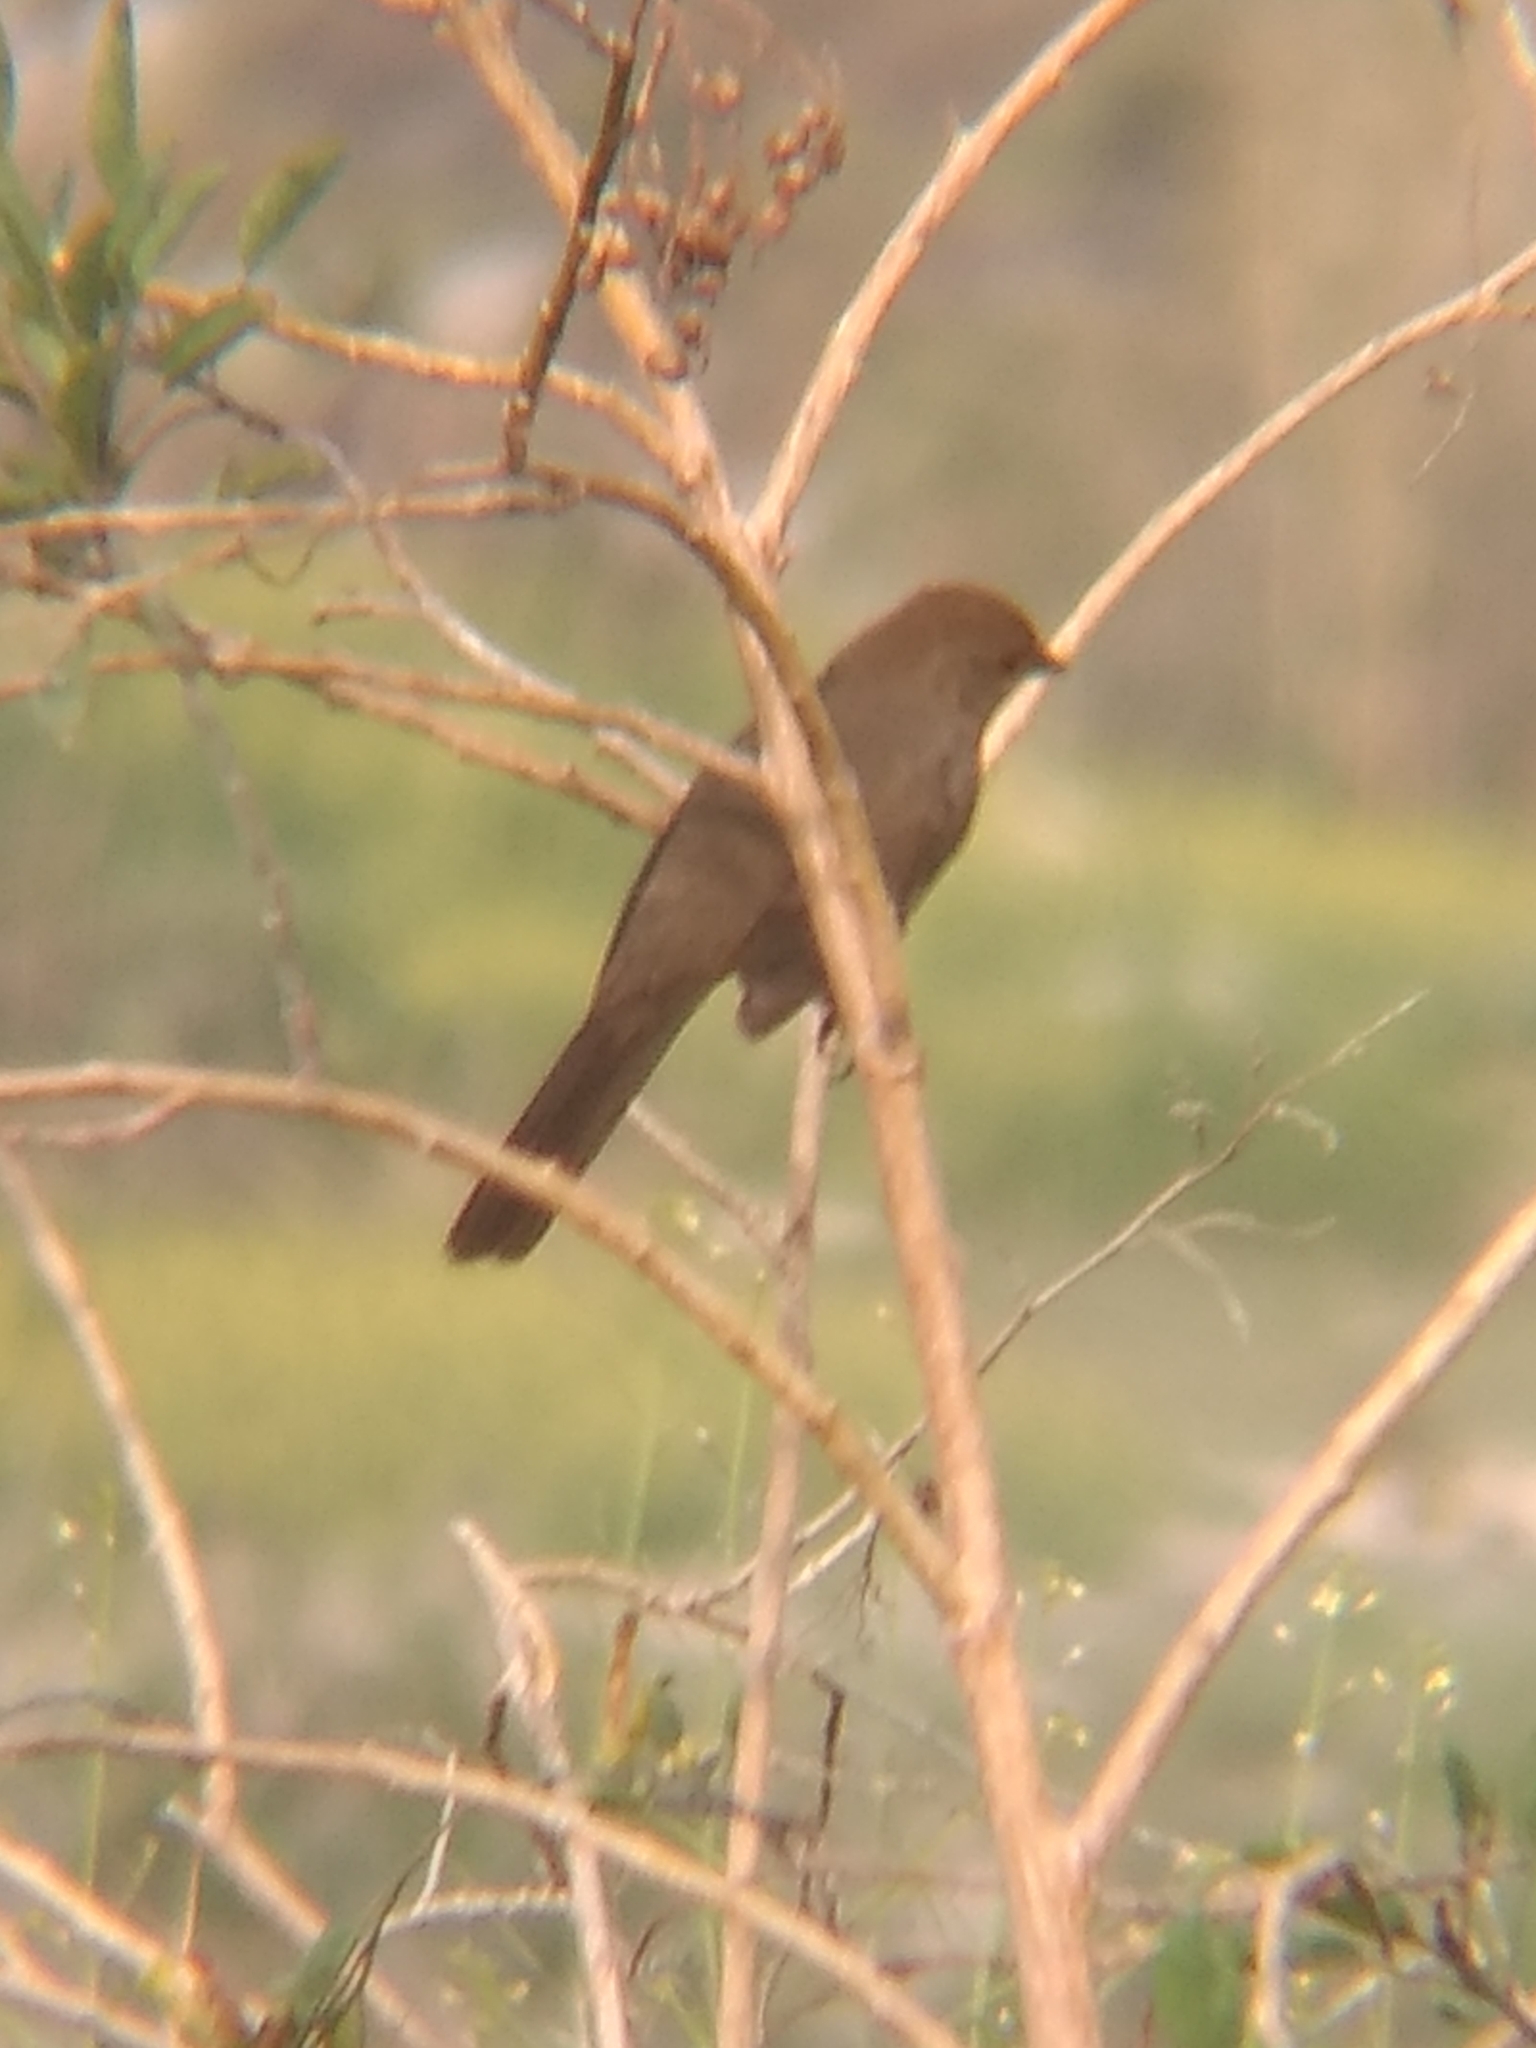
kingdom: Animalia
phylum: Chordata
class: Aves
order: Passeriformes
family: Passerellidae
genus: Melozone
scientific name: Melozone crissalis
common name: California towhee
